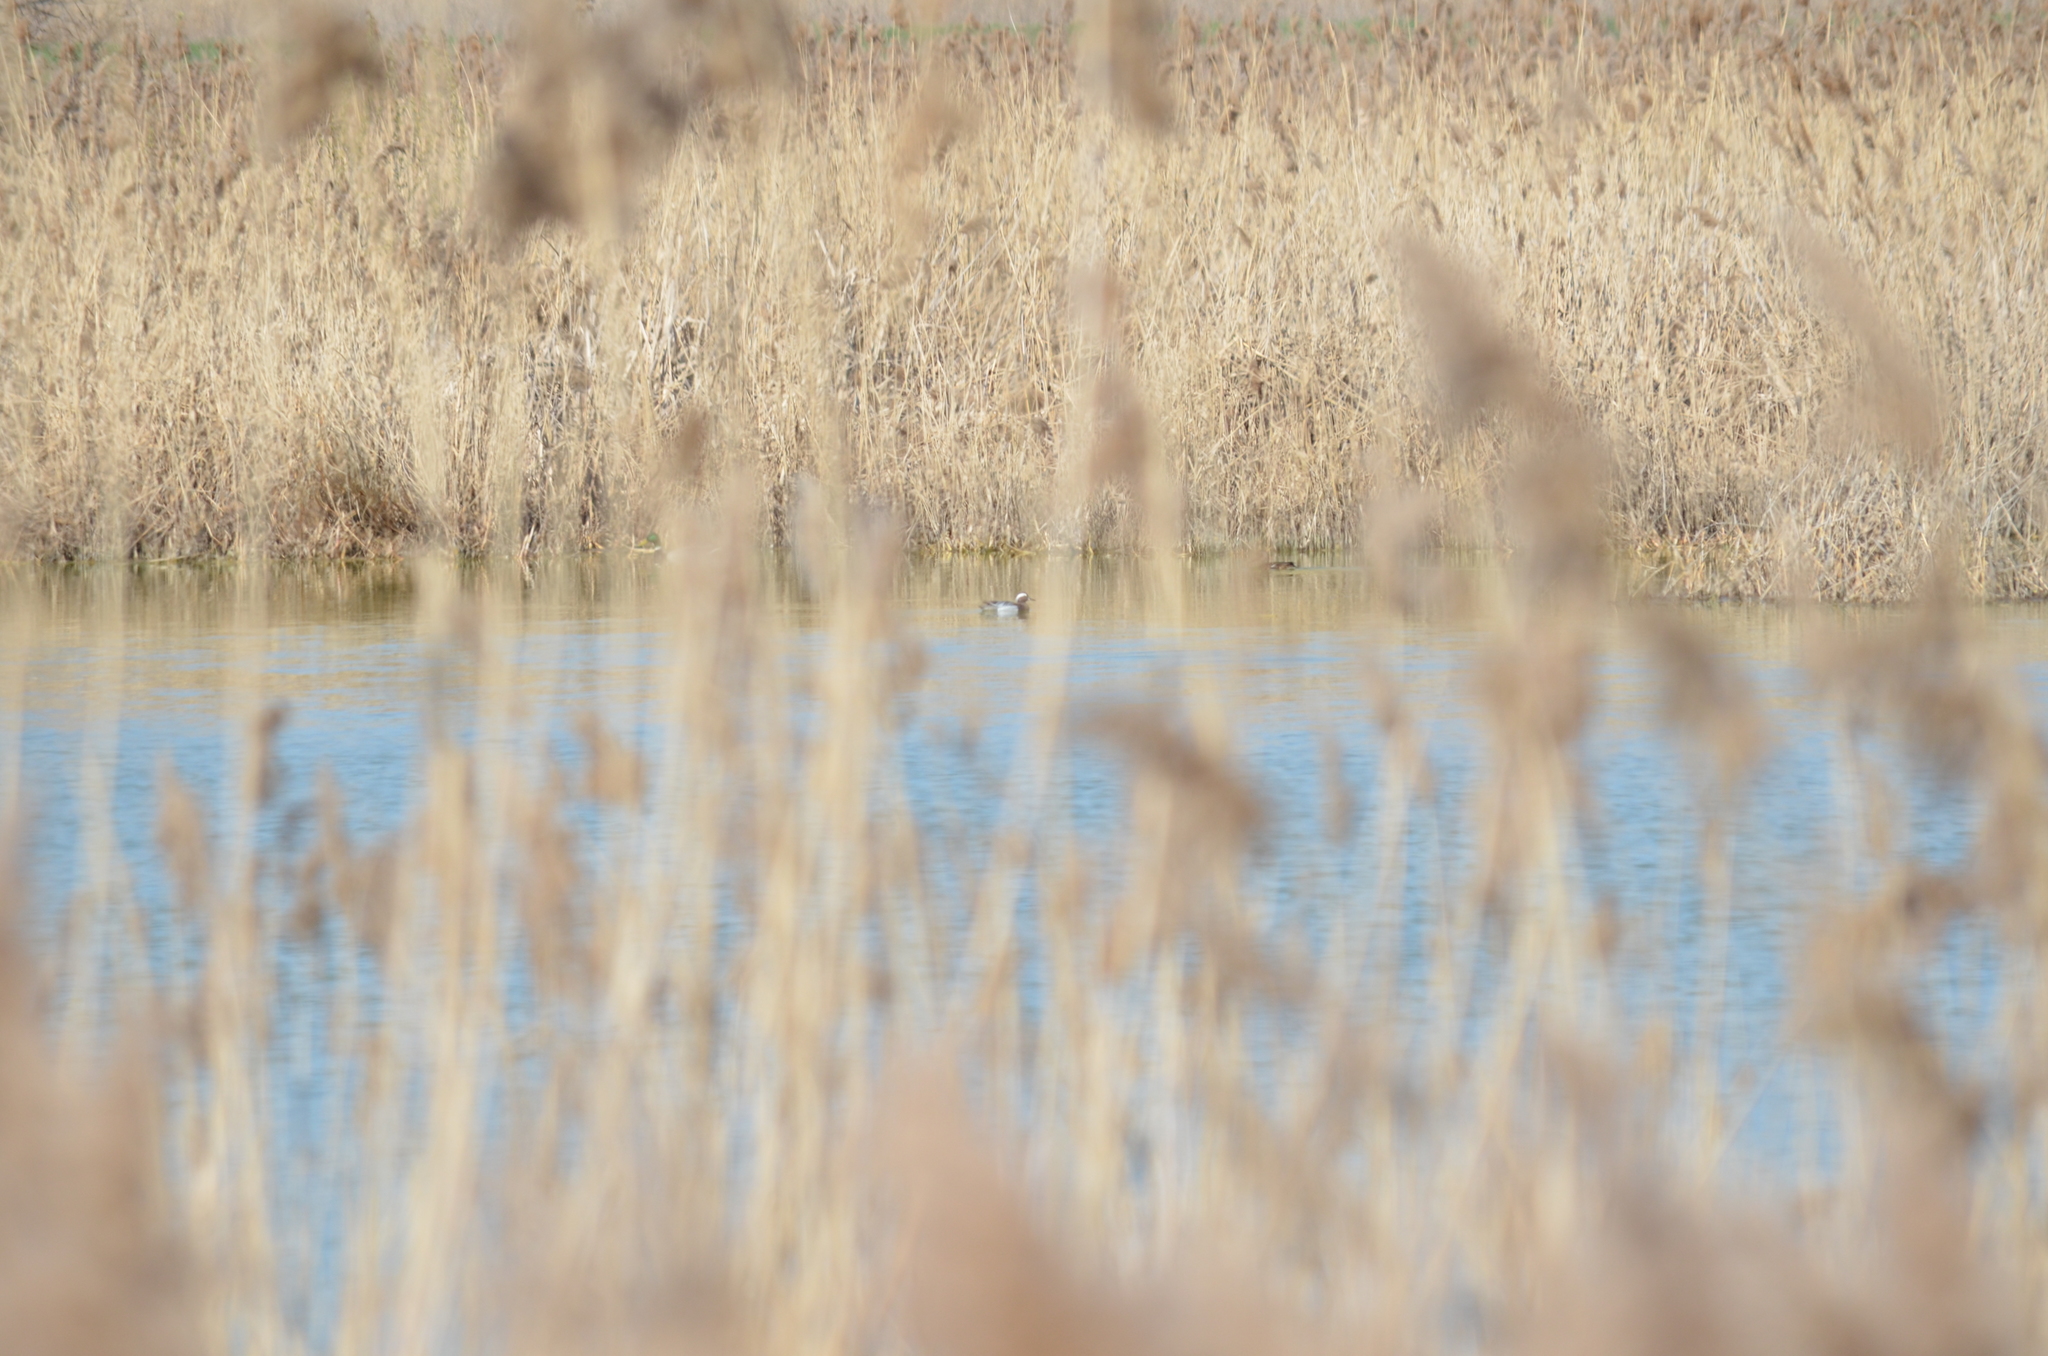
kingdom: Animalia
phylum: Chordata
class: Aves
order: Anseriformes
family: Anatidae
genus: Spatula
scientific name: Spatula querquedula
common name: Garganey
